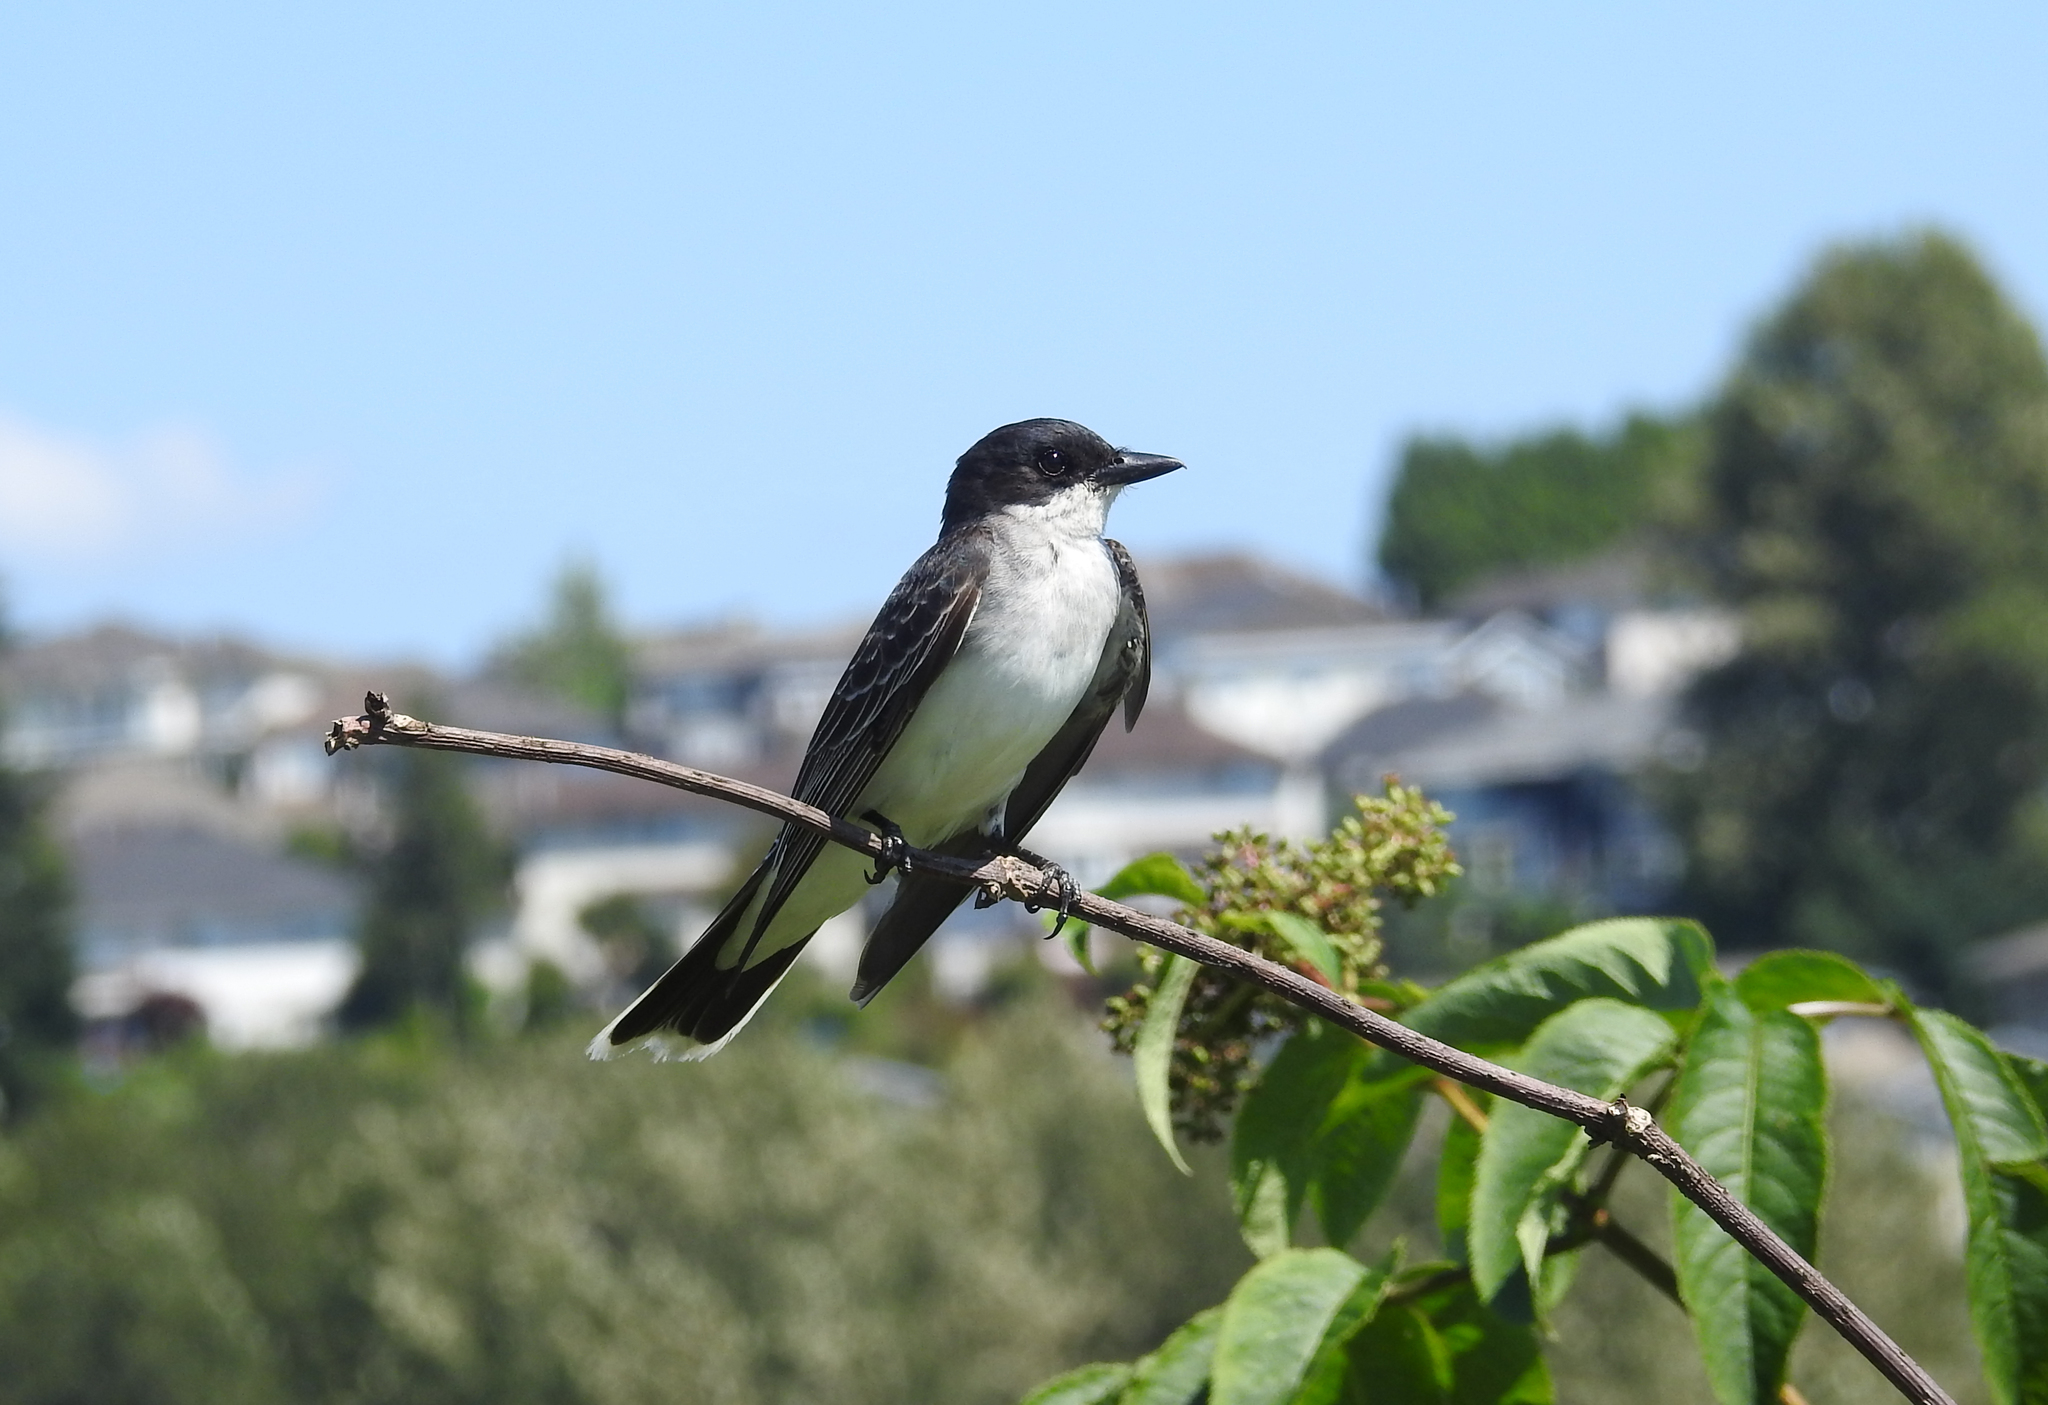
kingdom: Animalia
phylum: Chordata
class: Aves
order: Passeriformes
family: Tyrannidae
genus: Tyrannus
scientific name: Tyrannus tyrannus
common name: Eastern kingbird
